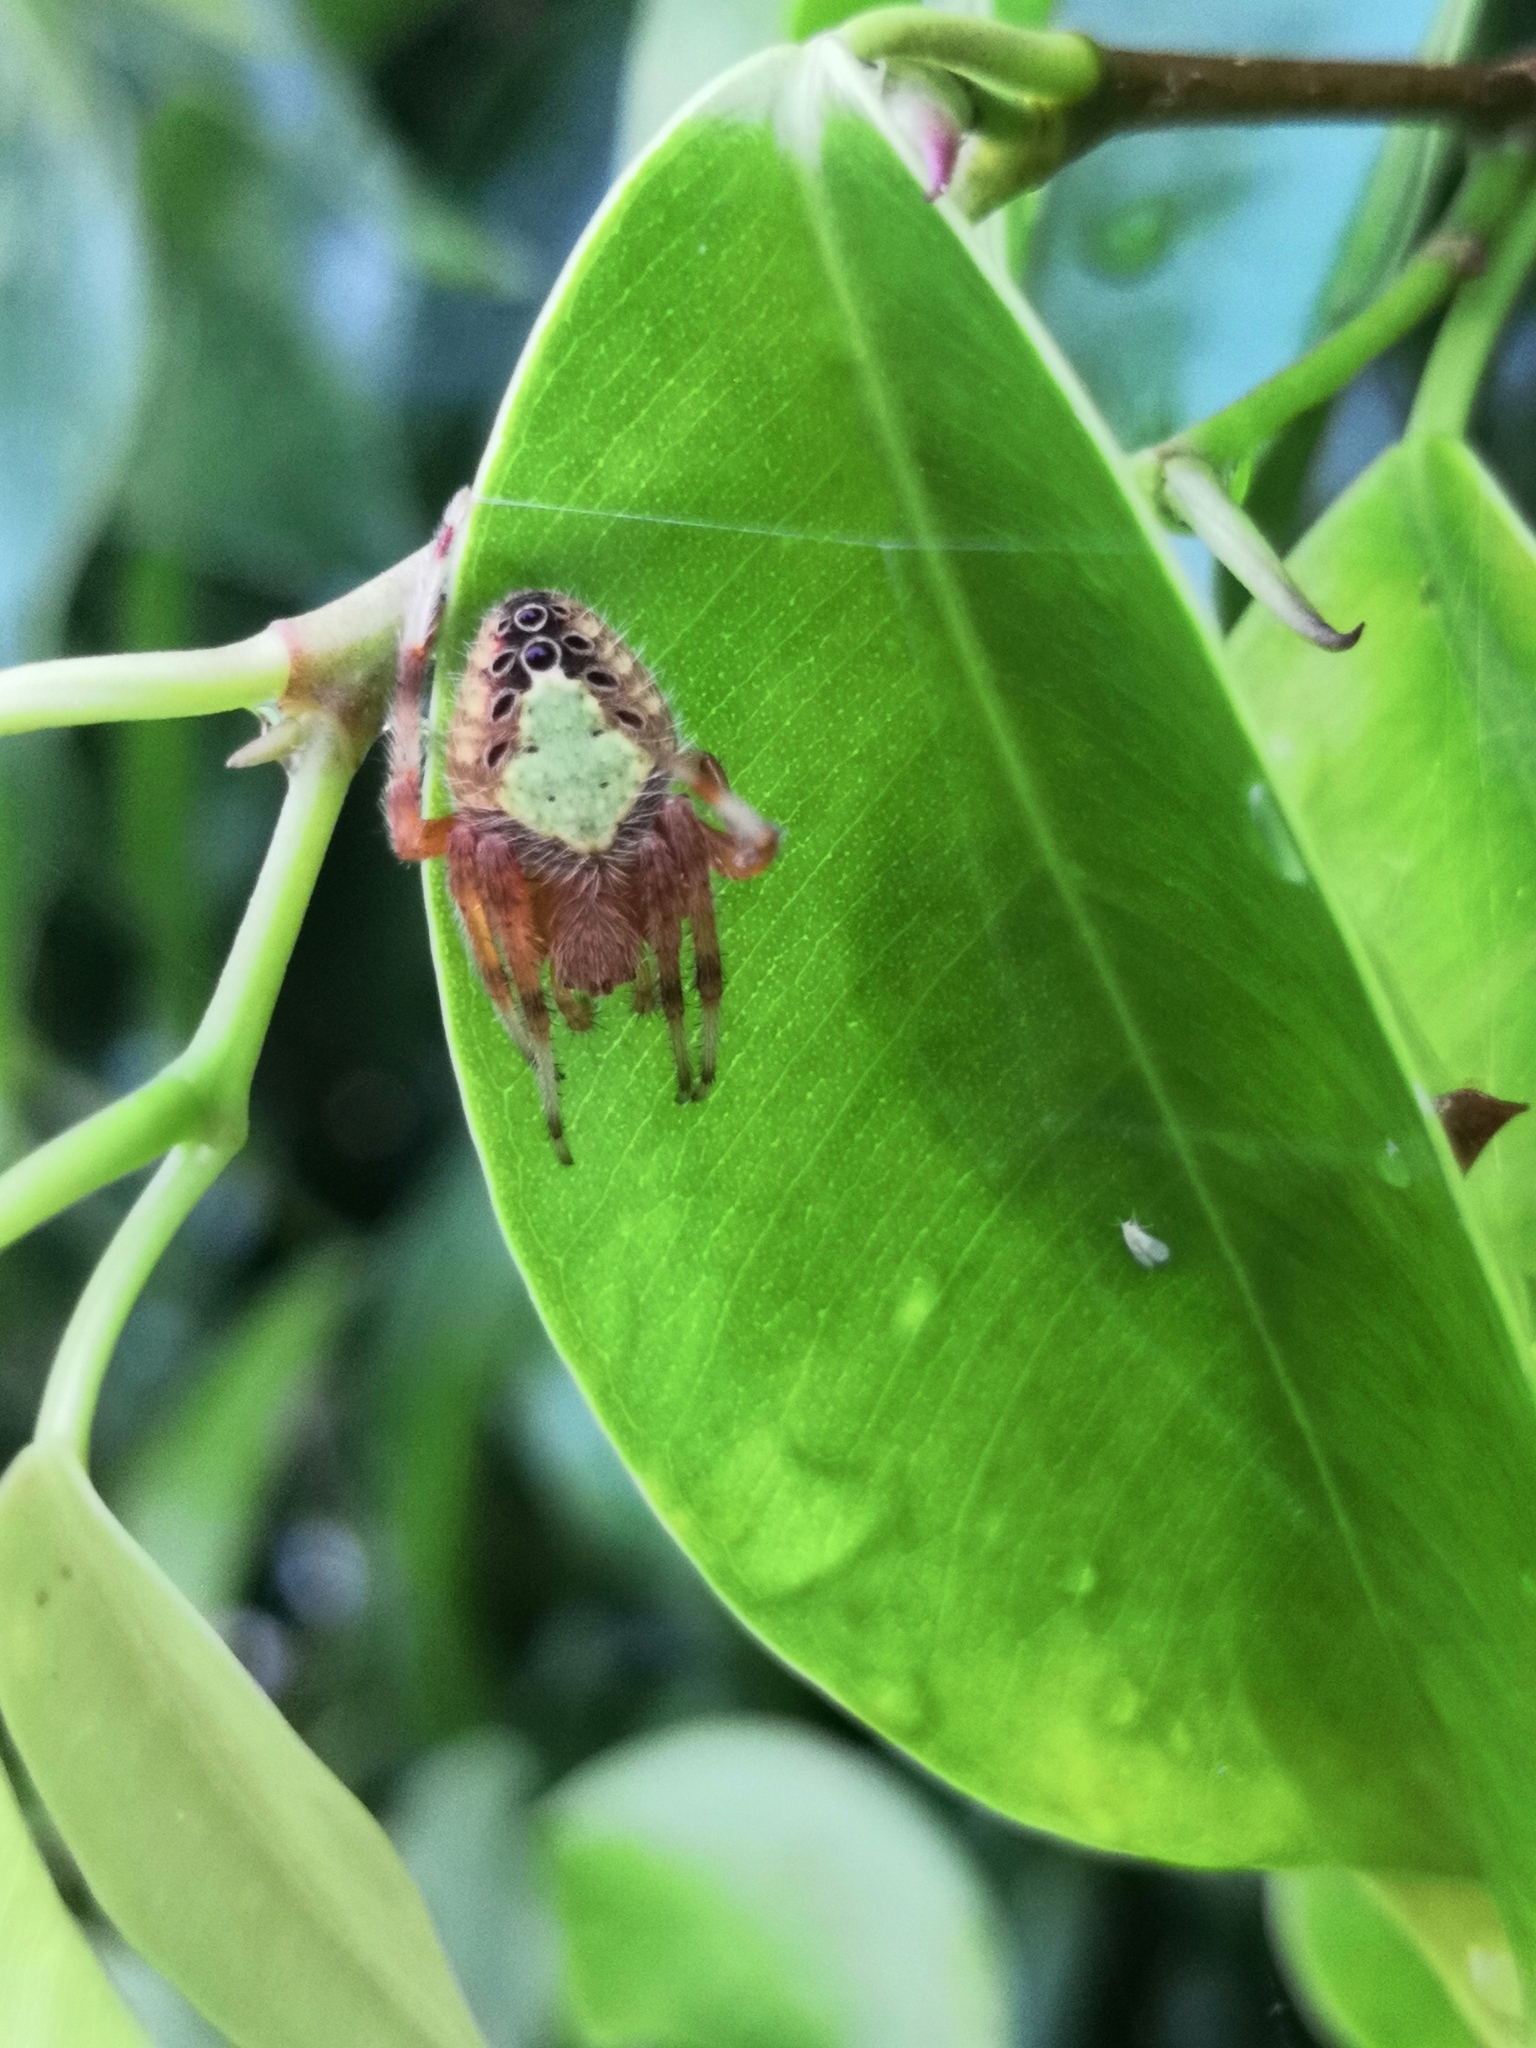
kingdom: Animalia
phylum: Arthropoda
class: Arachnida
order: Araneae
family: Araneidae
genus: Eriophora
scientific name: Eriophora ravilla
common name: Orb weavers
